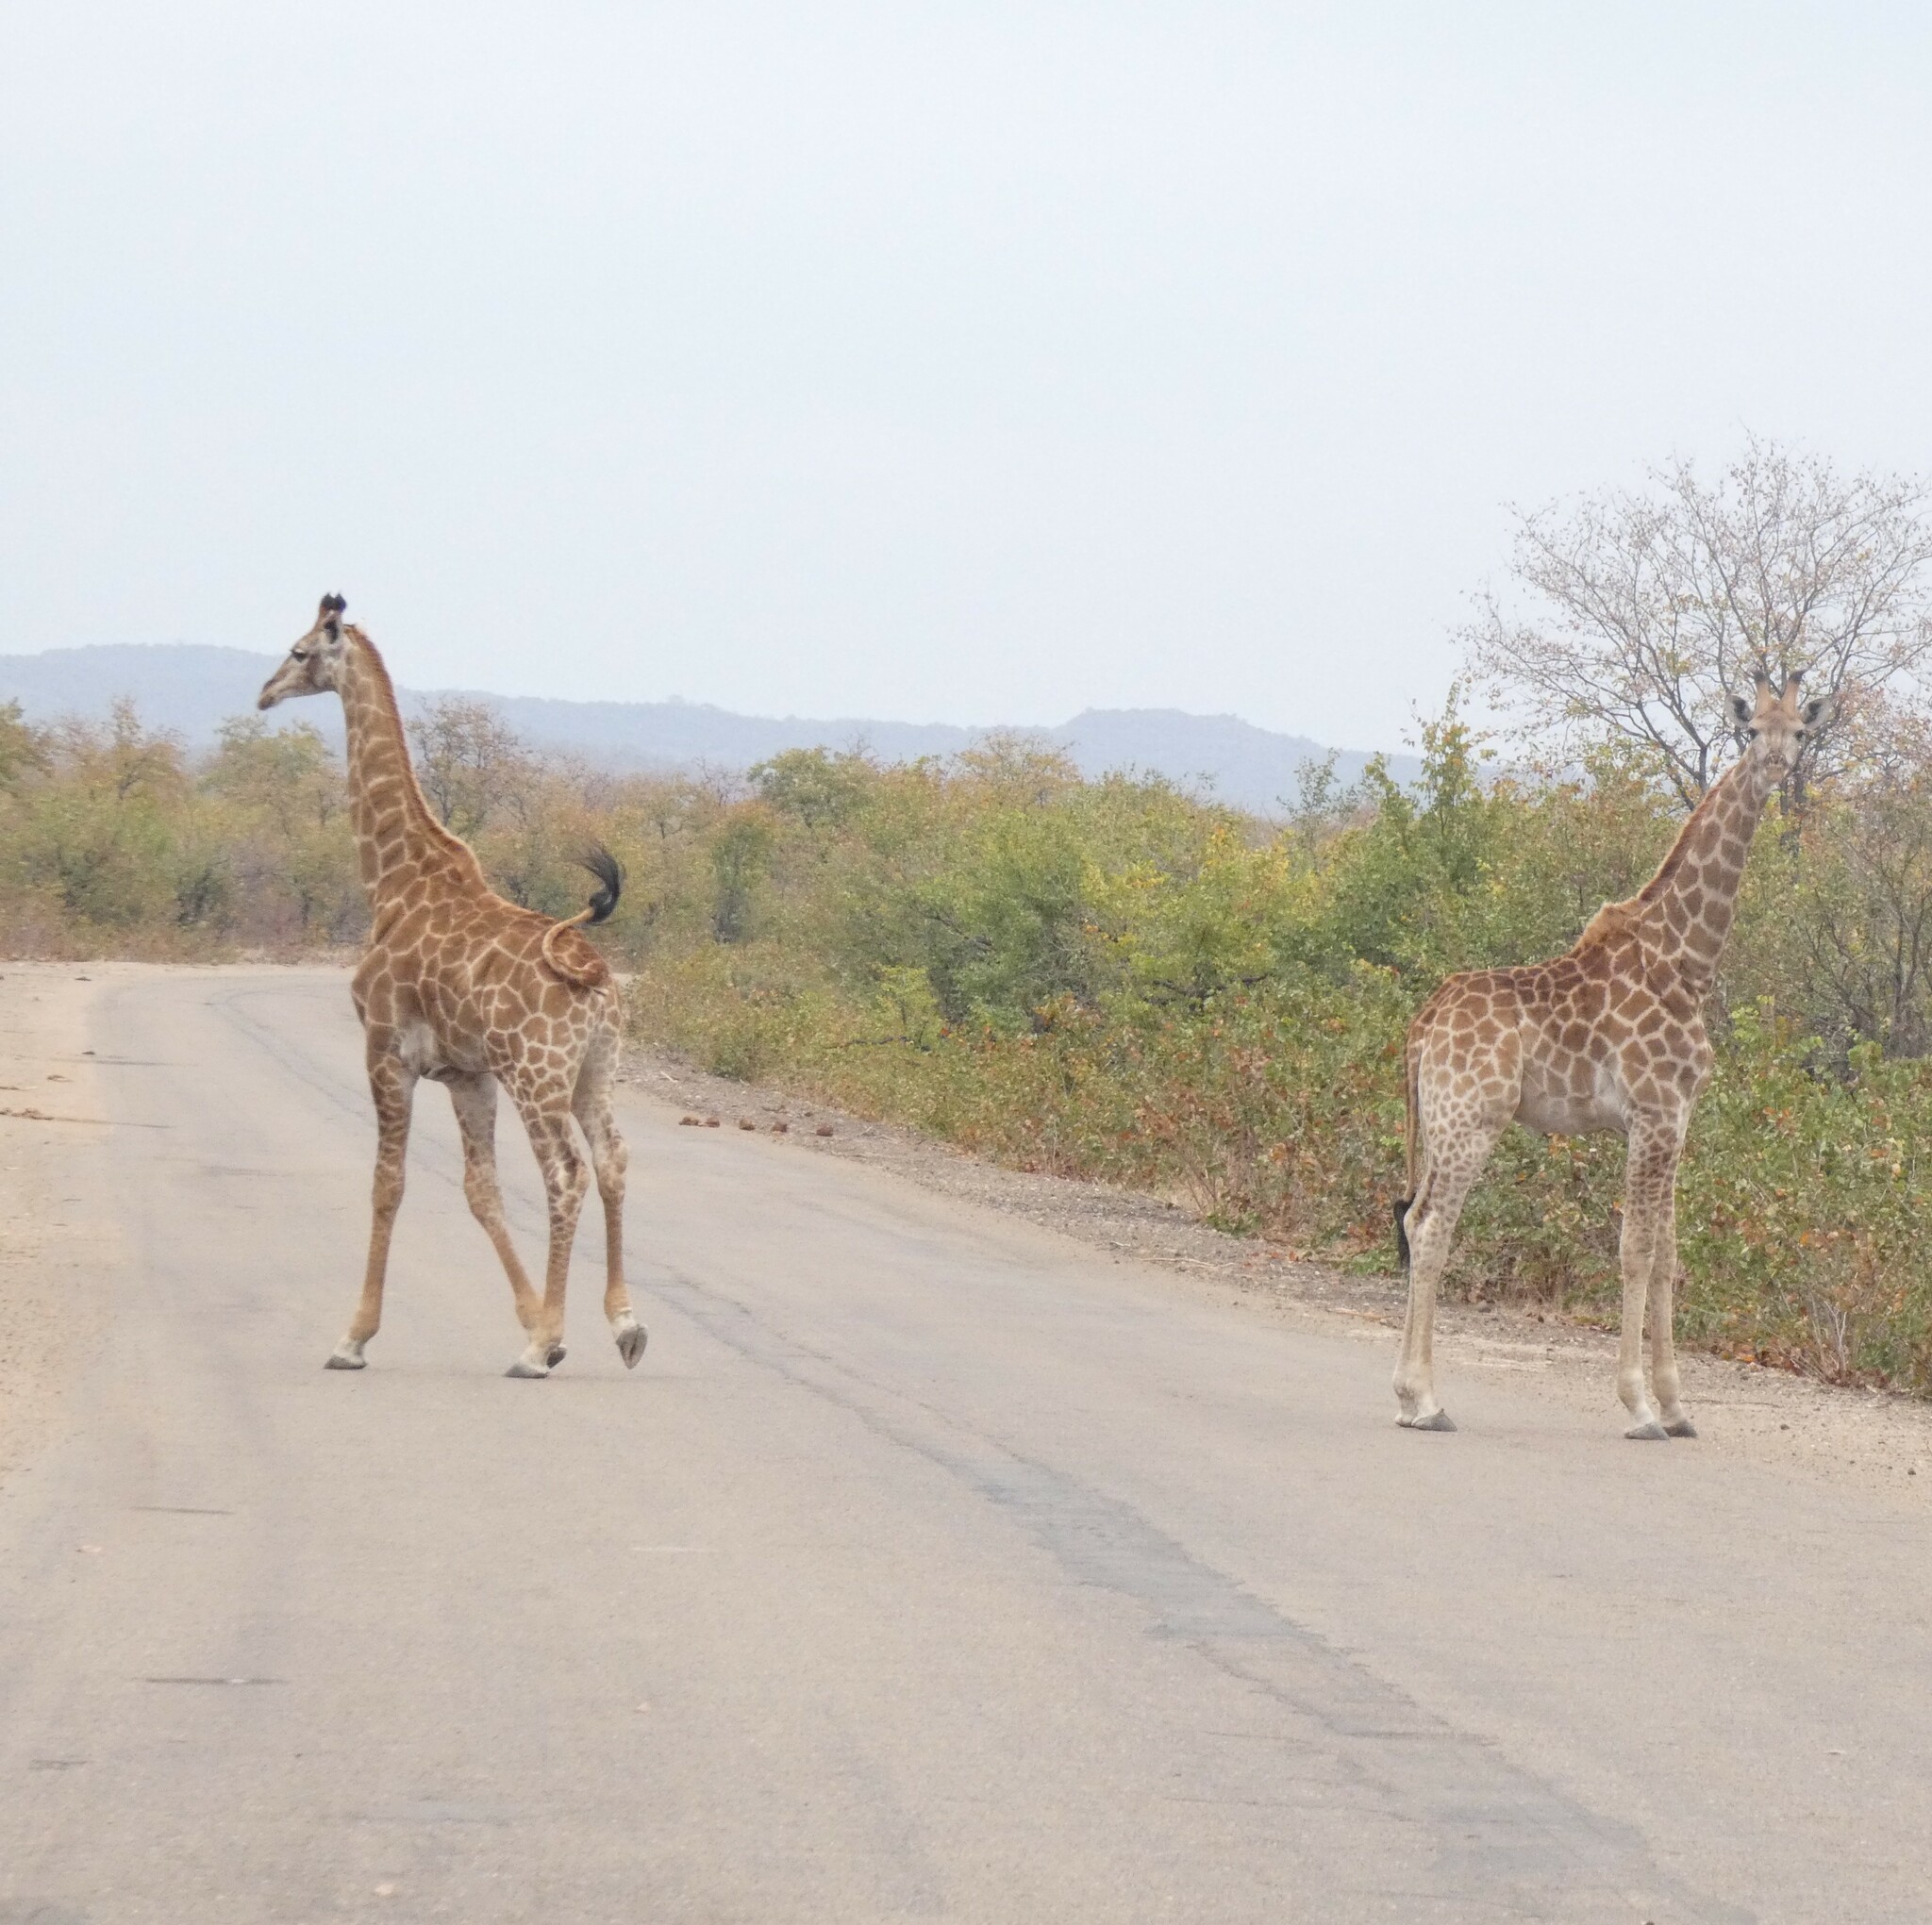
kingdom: Animalia
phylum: Chordata
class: Mammalia
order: Artiodactyla
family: Giraffidae
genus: Giraffa
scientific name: Giraffa giraffa
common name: Southern giraffe
